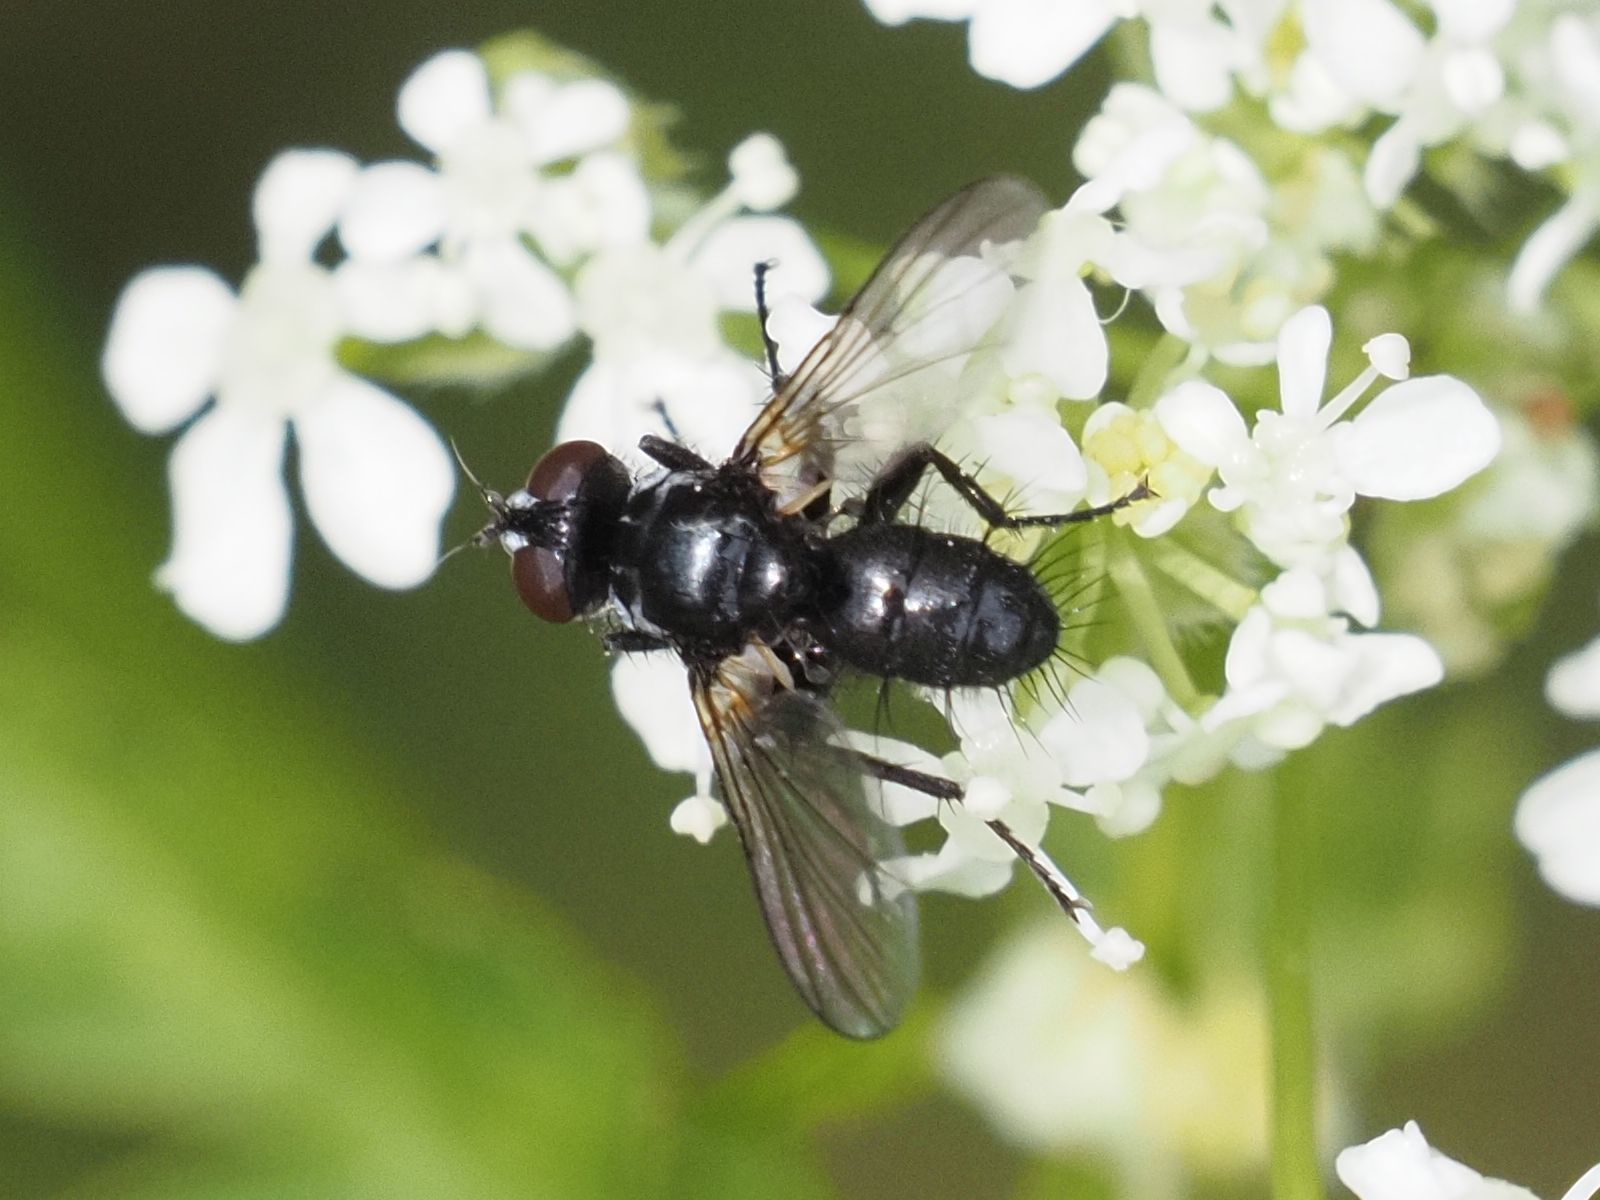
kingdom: Animalia
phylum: Arthropoda
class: Insecta
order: Diptera
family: Tachinidae
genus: Phania
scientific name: Phania funesta
